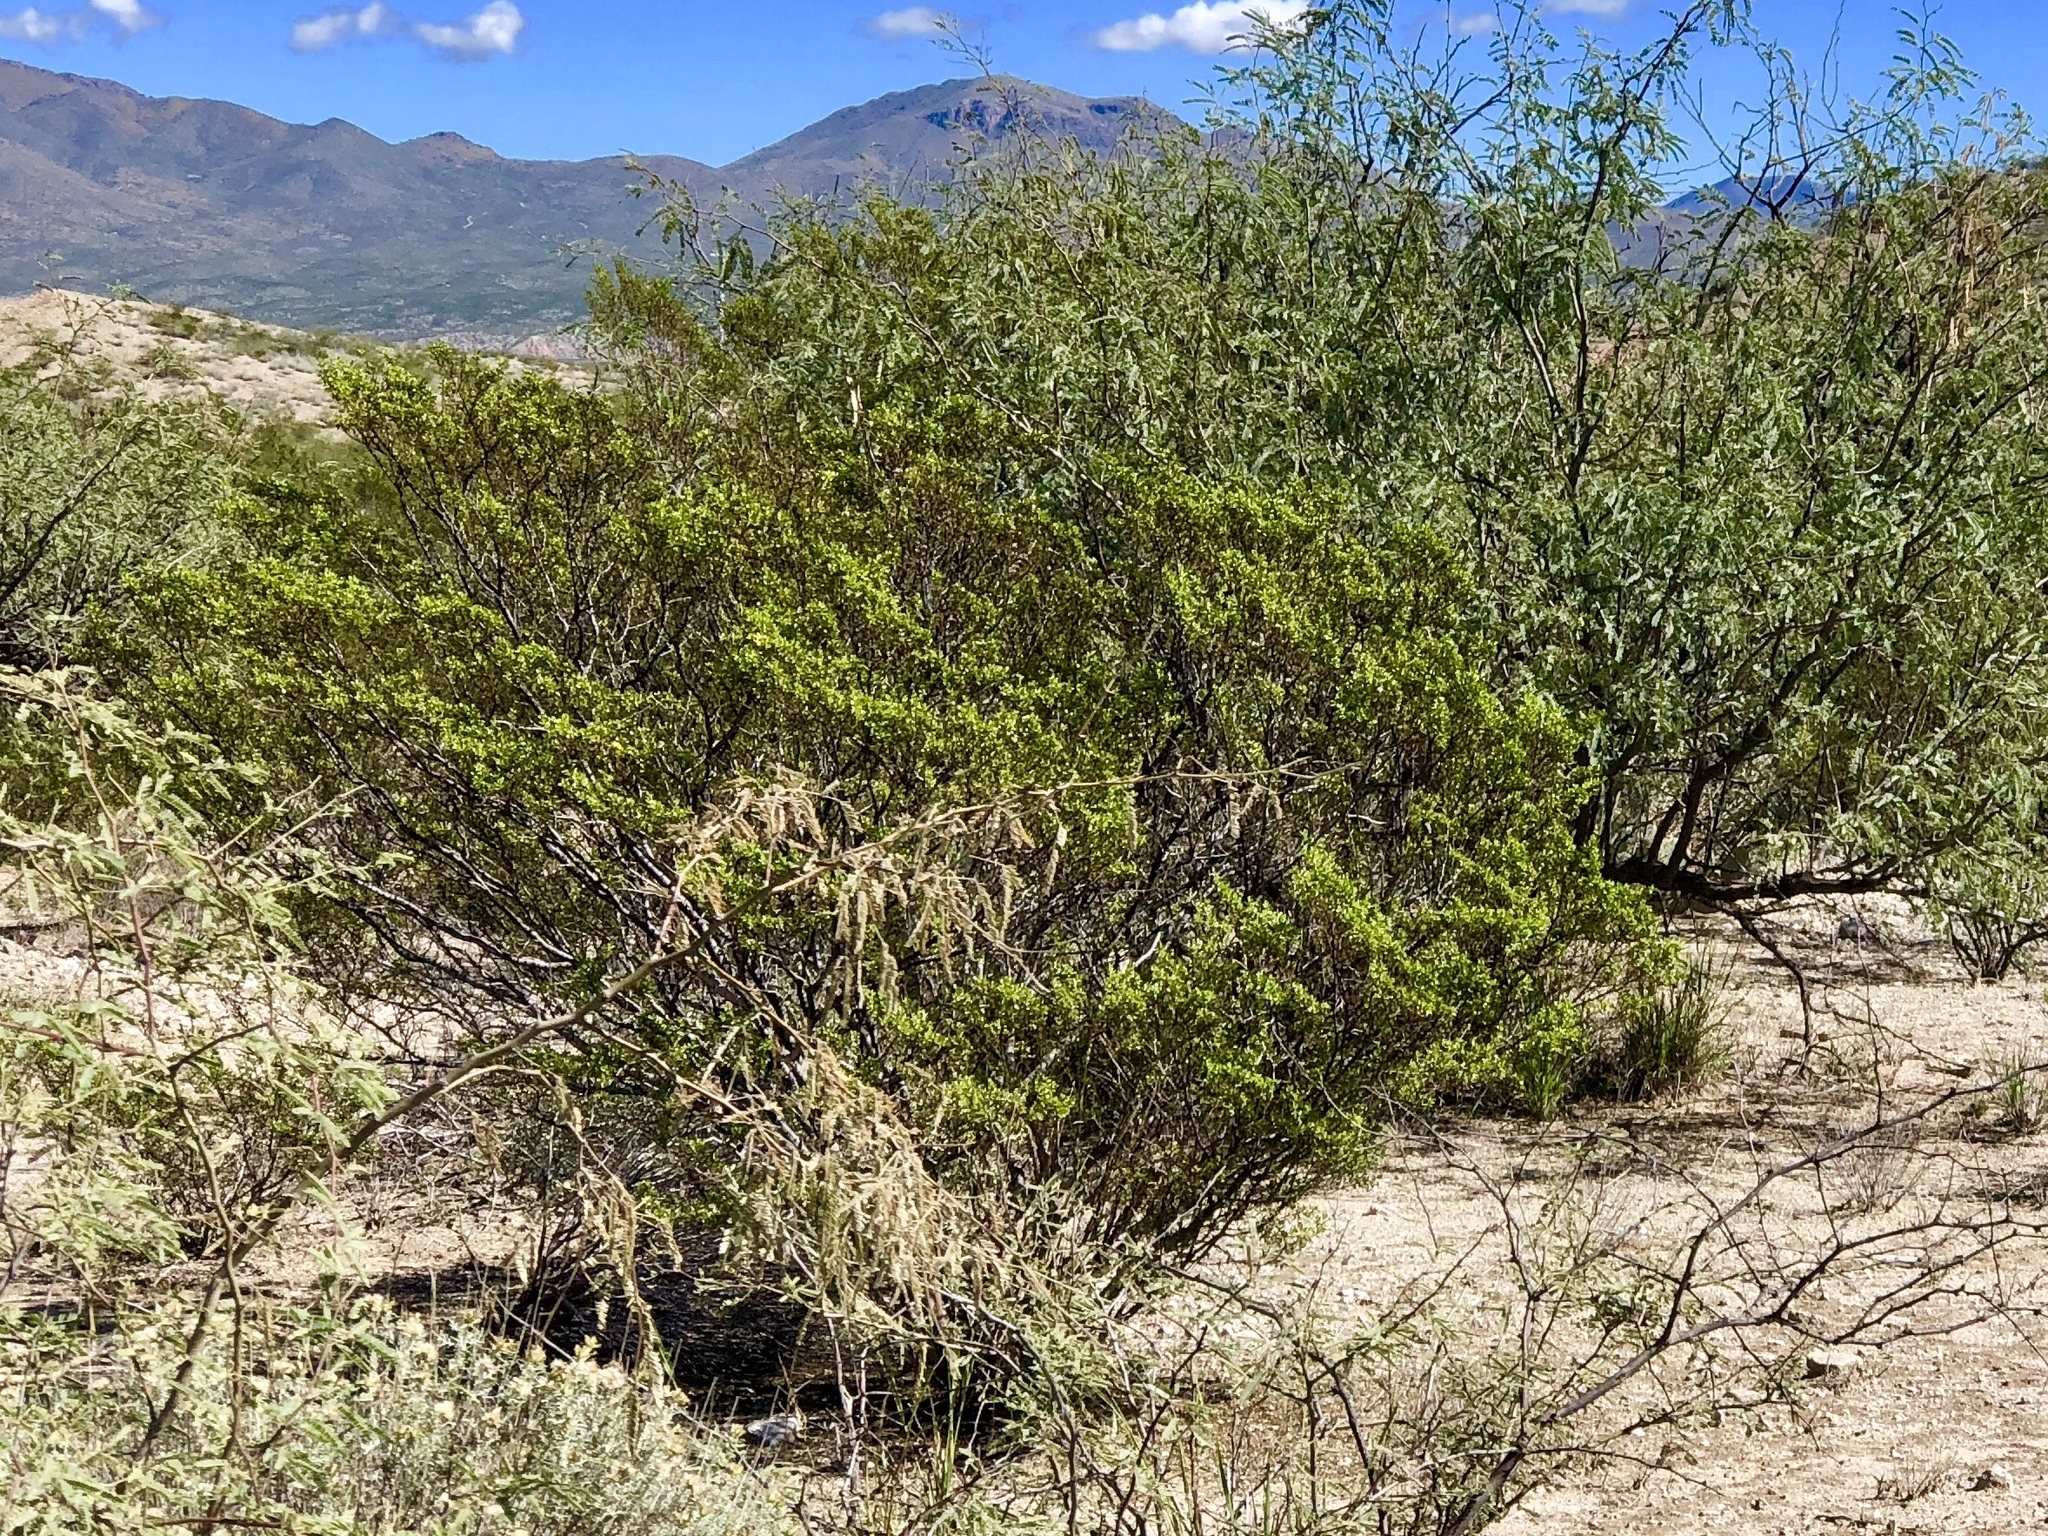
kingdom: Plantae
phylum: Tracheophyta
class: Magnoliopsida
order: Zygophyllales
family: Zygophyllaceae
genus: Larrea
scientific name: Larrea tridentata
